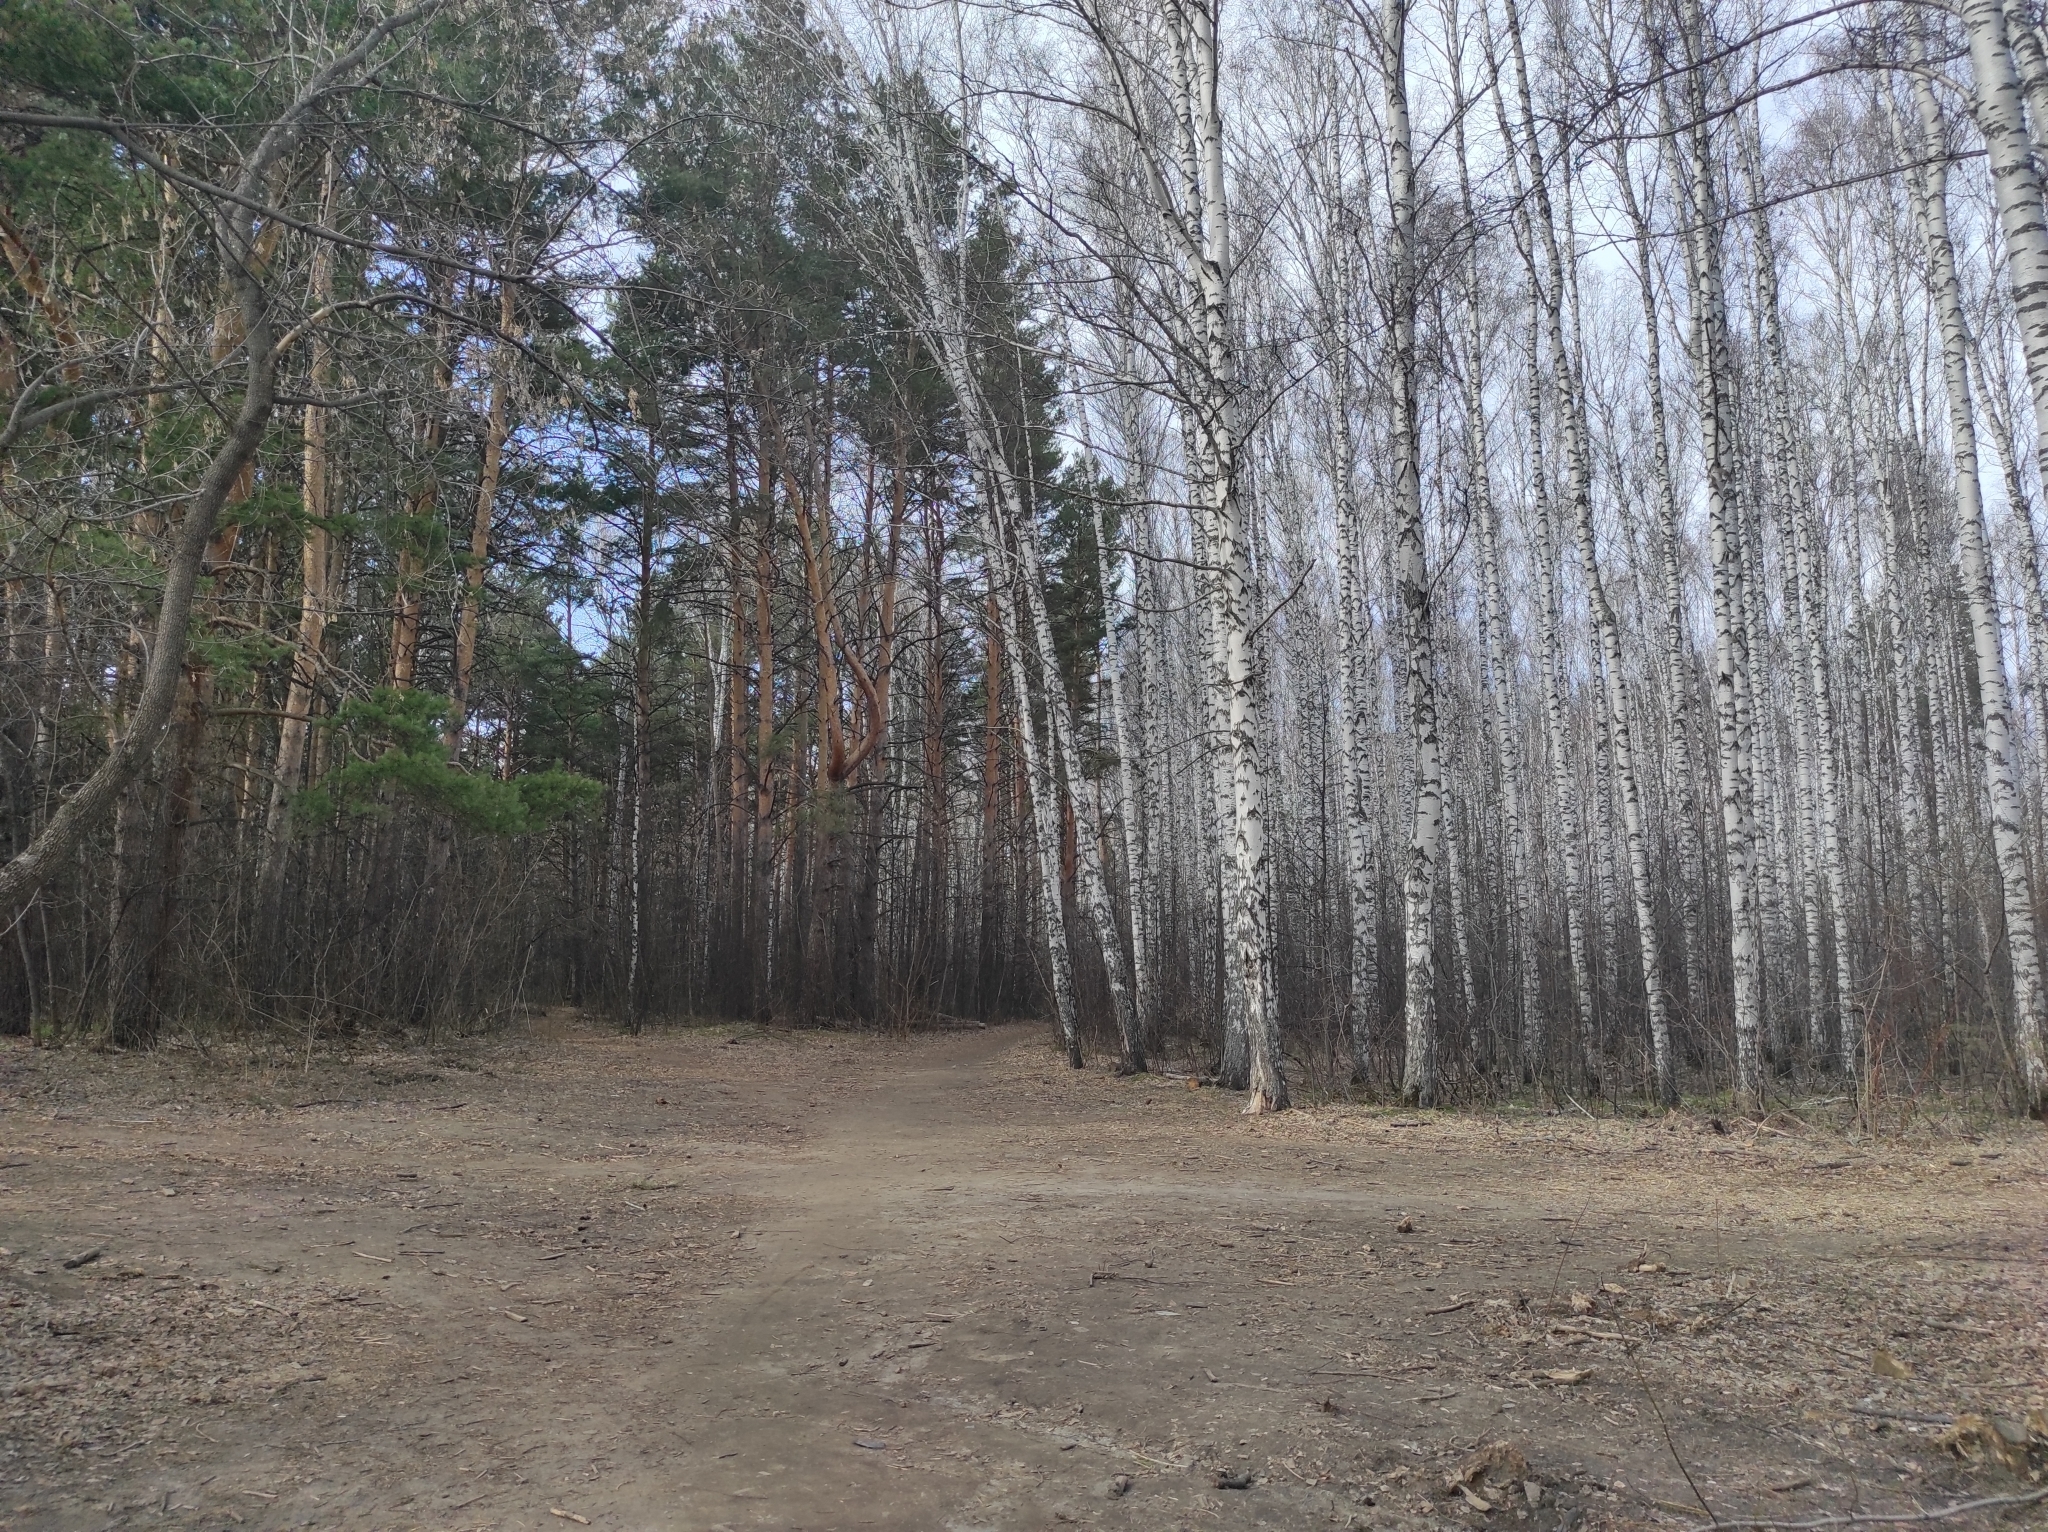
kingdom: Plantae
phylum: Tracheophyta
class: Pinopsida
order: Pinales
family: Pinaceae
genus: Pinus
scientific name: Pinus sylvestris
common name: Scots pine
